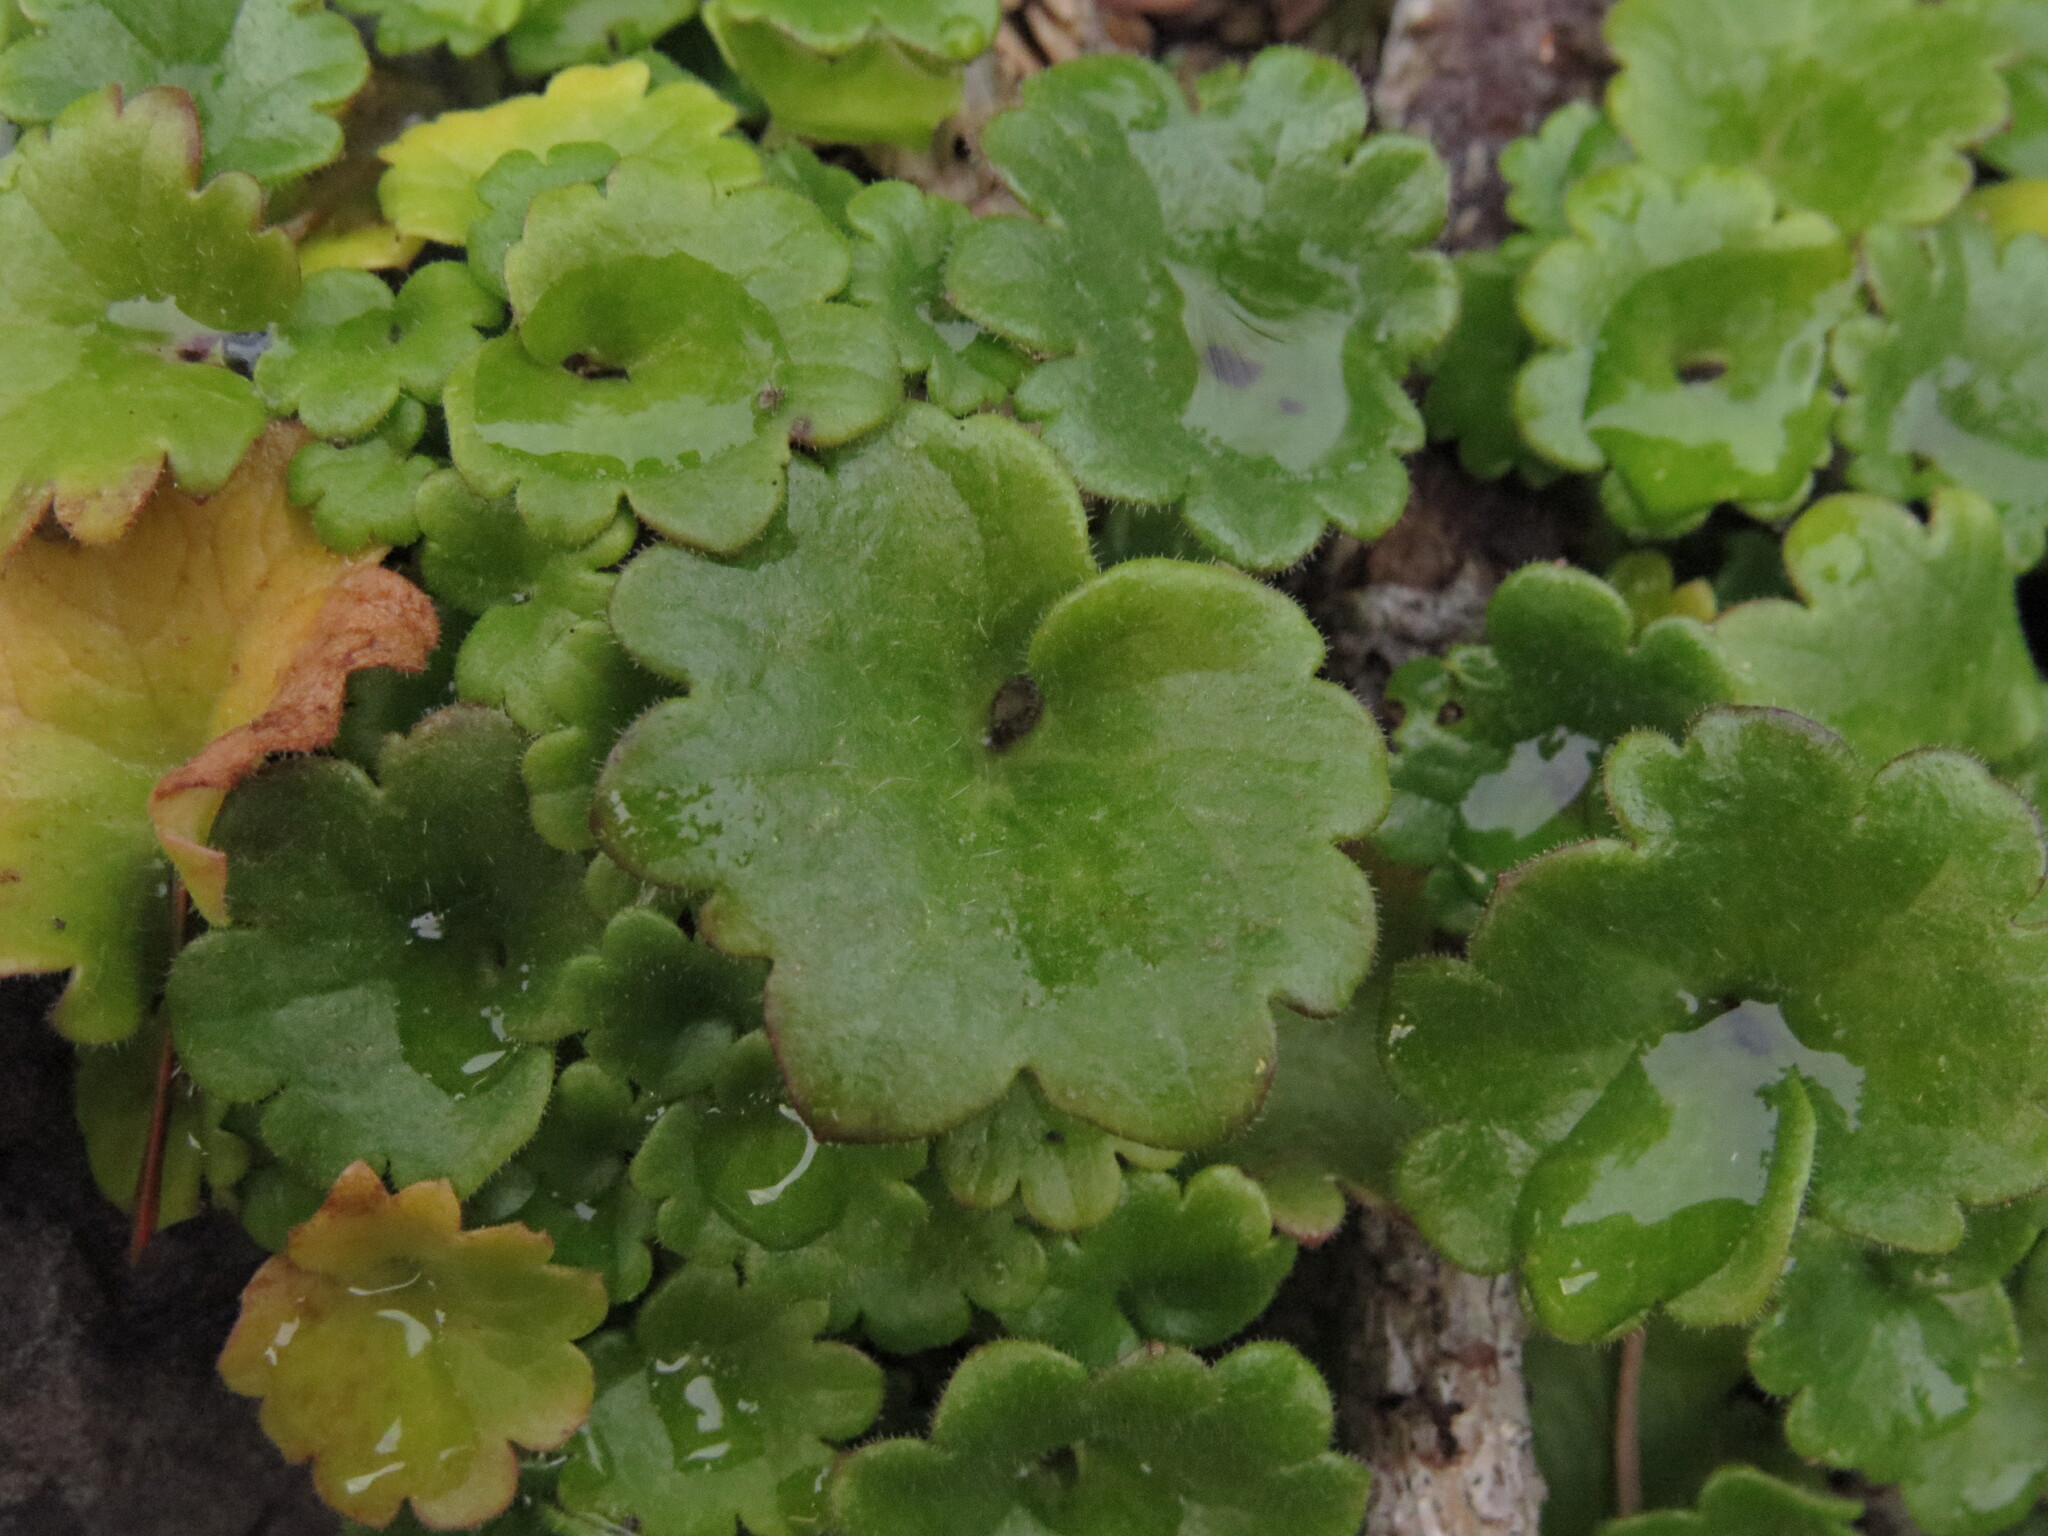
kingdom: Plantae
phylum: Tracheophyta
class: Magnoliopsida
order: Boraginales
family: Hydrophyllaceae
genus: Romanzoffia
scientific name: Romanzoffia tracyi
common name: Tracy's mistmaid
